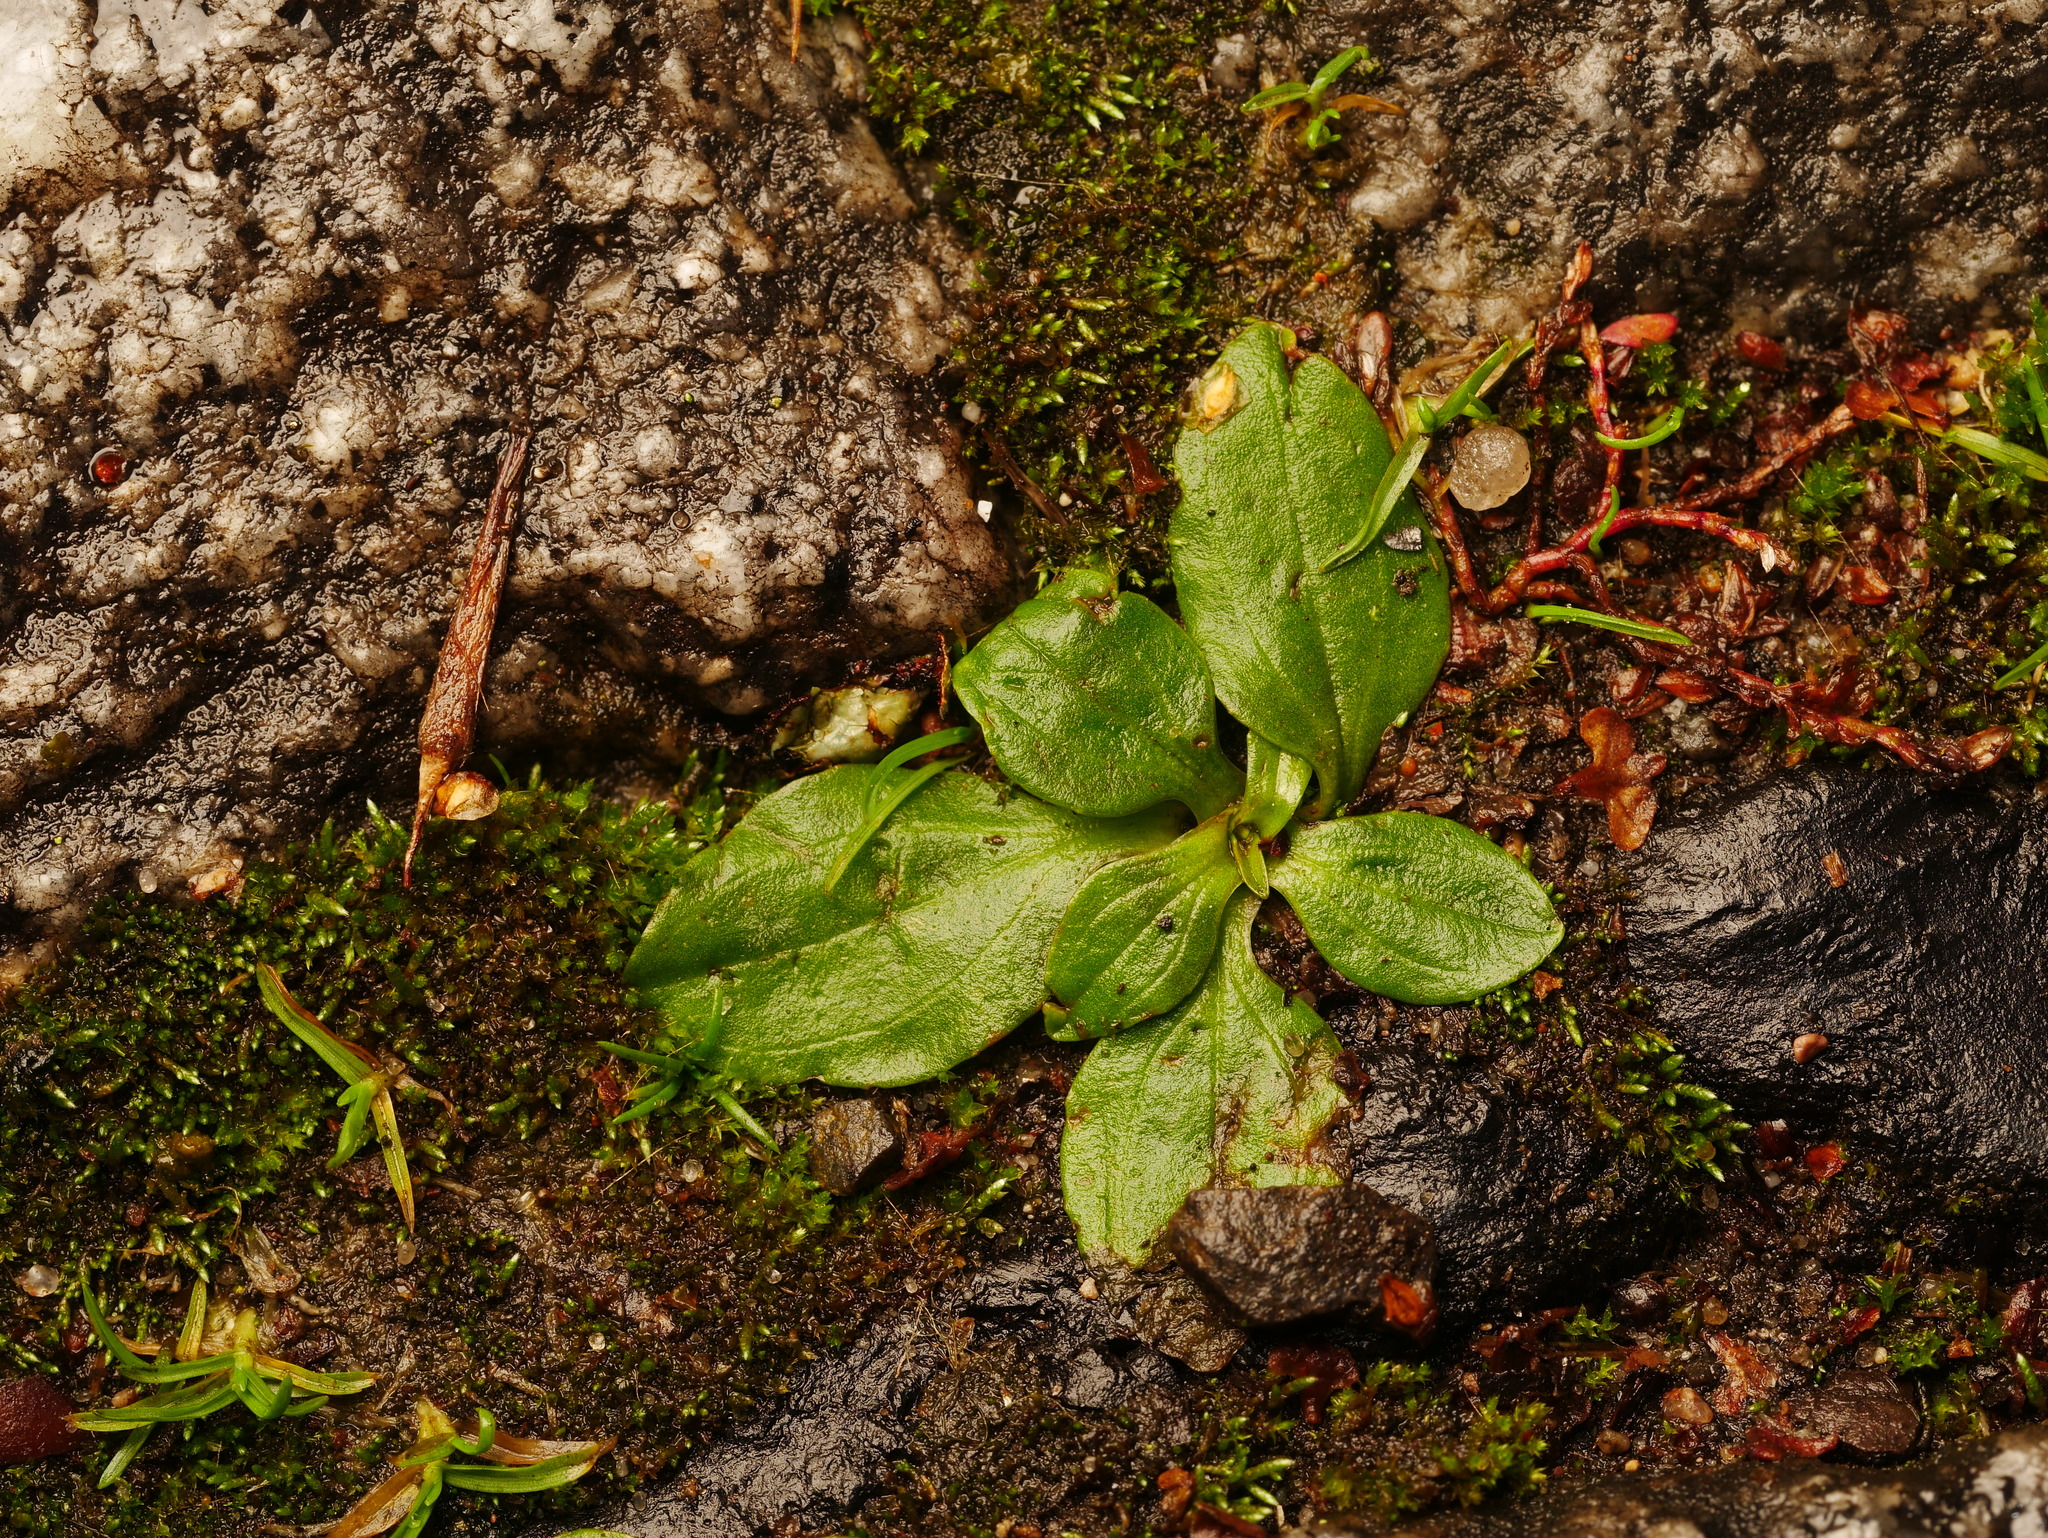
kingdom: Plantae
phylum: Tracheophyta
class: Magnoliopsida
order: Lamiales
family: Plantaginaceae
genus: Plantago
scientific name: Plantago major
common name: Common plantain
